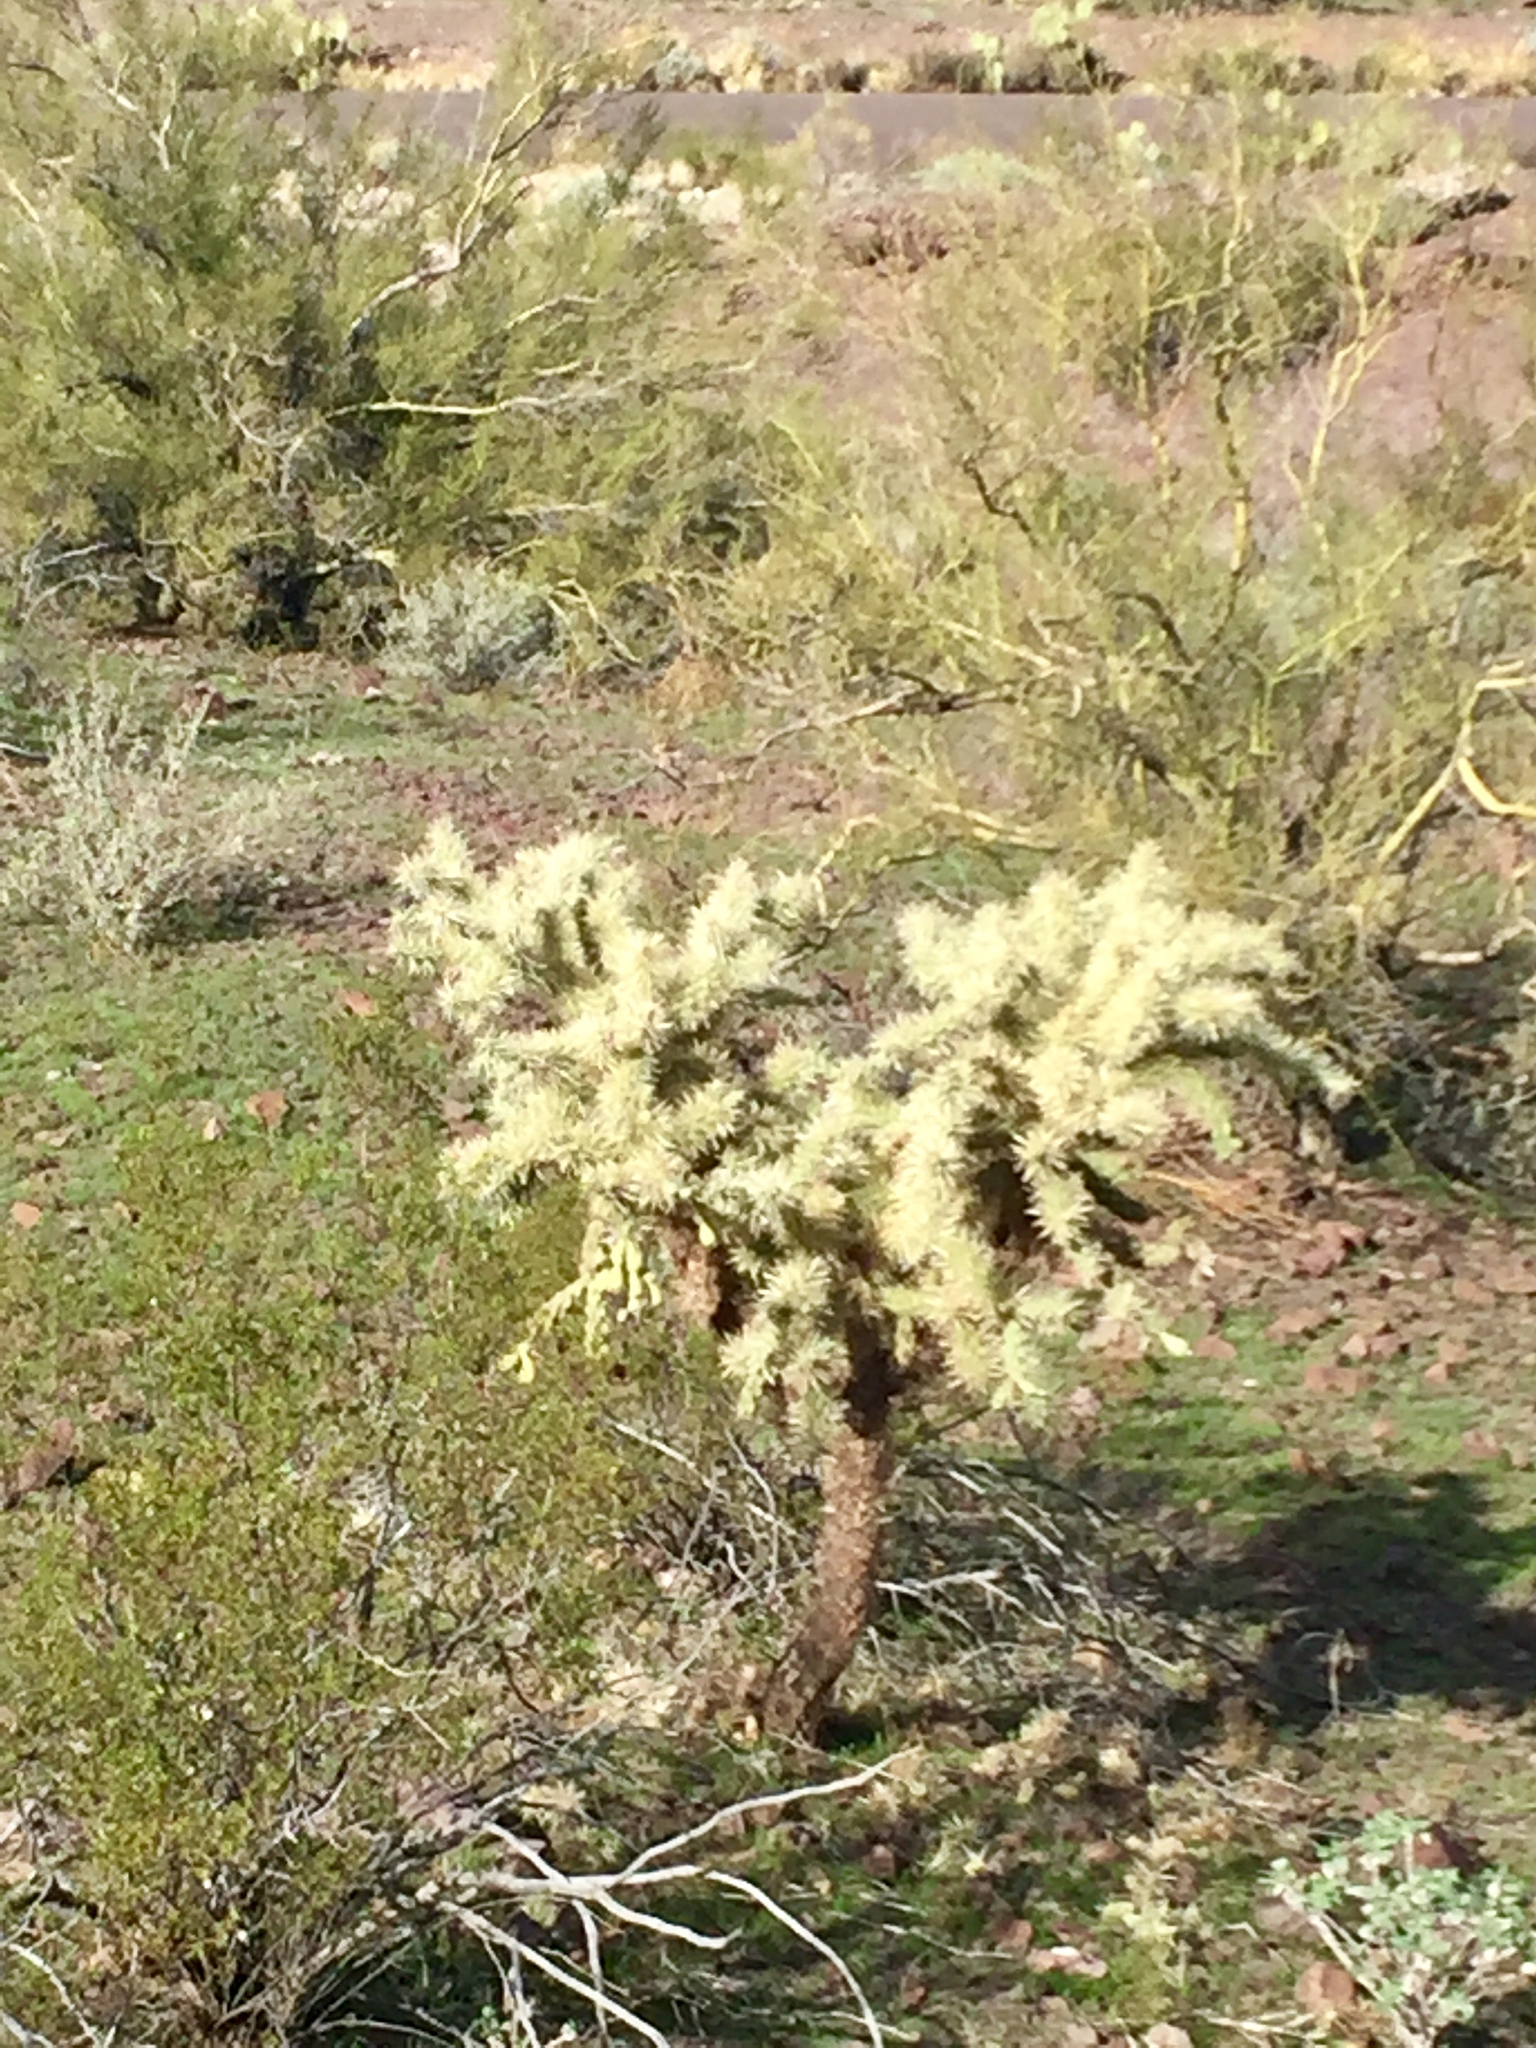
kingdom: Plantae
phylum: Tracheophyta
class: Magnoliopsida
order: Caryophyllales
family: Cactaceae
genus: Cylindropuntia
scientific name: Cylindropuntia fulgida
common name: Jumping cholla
